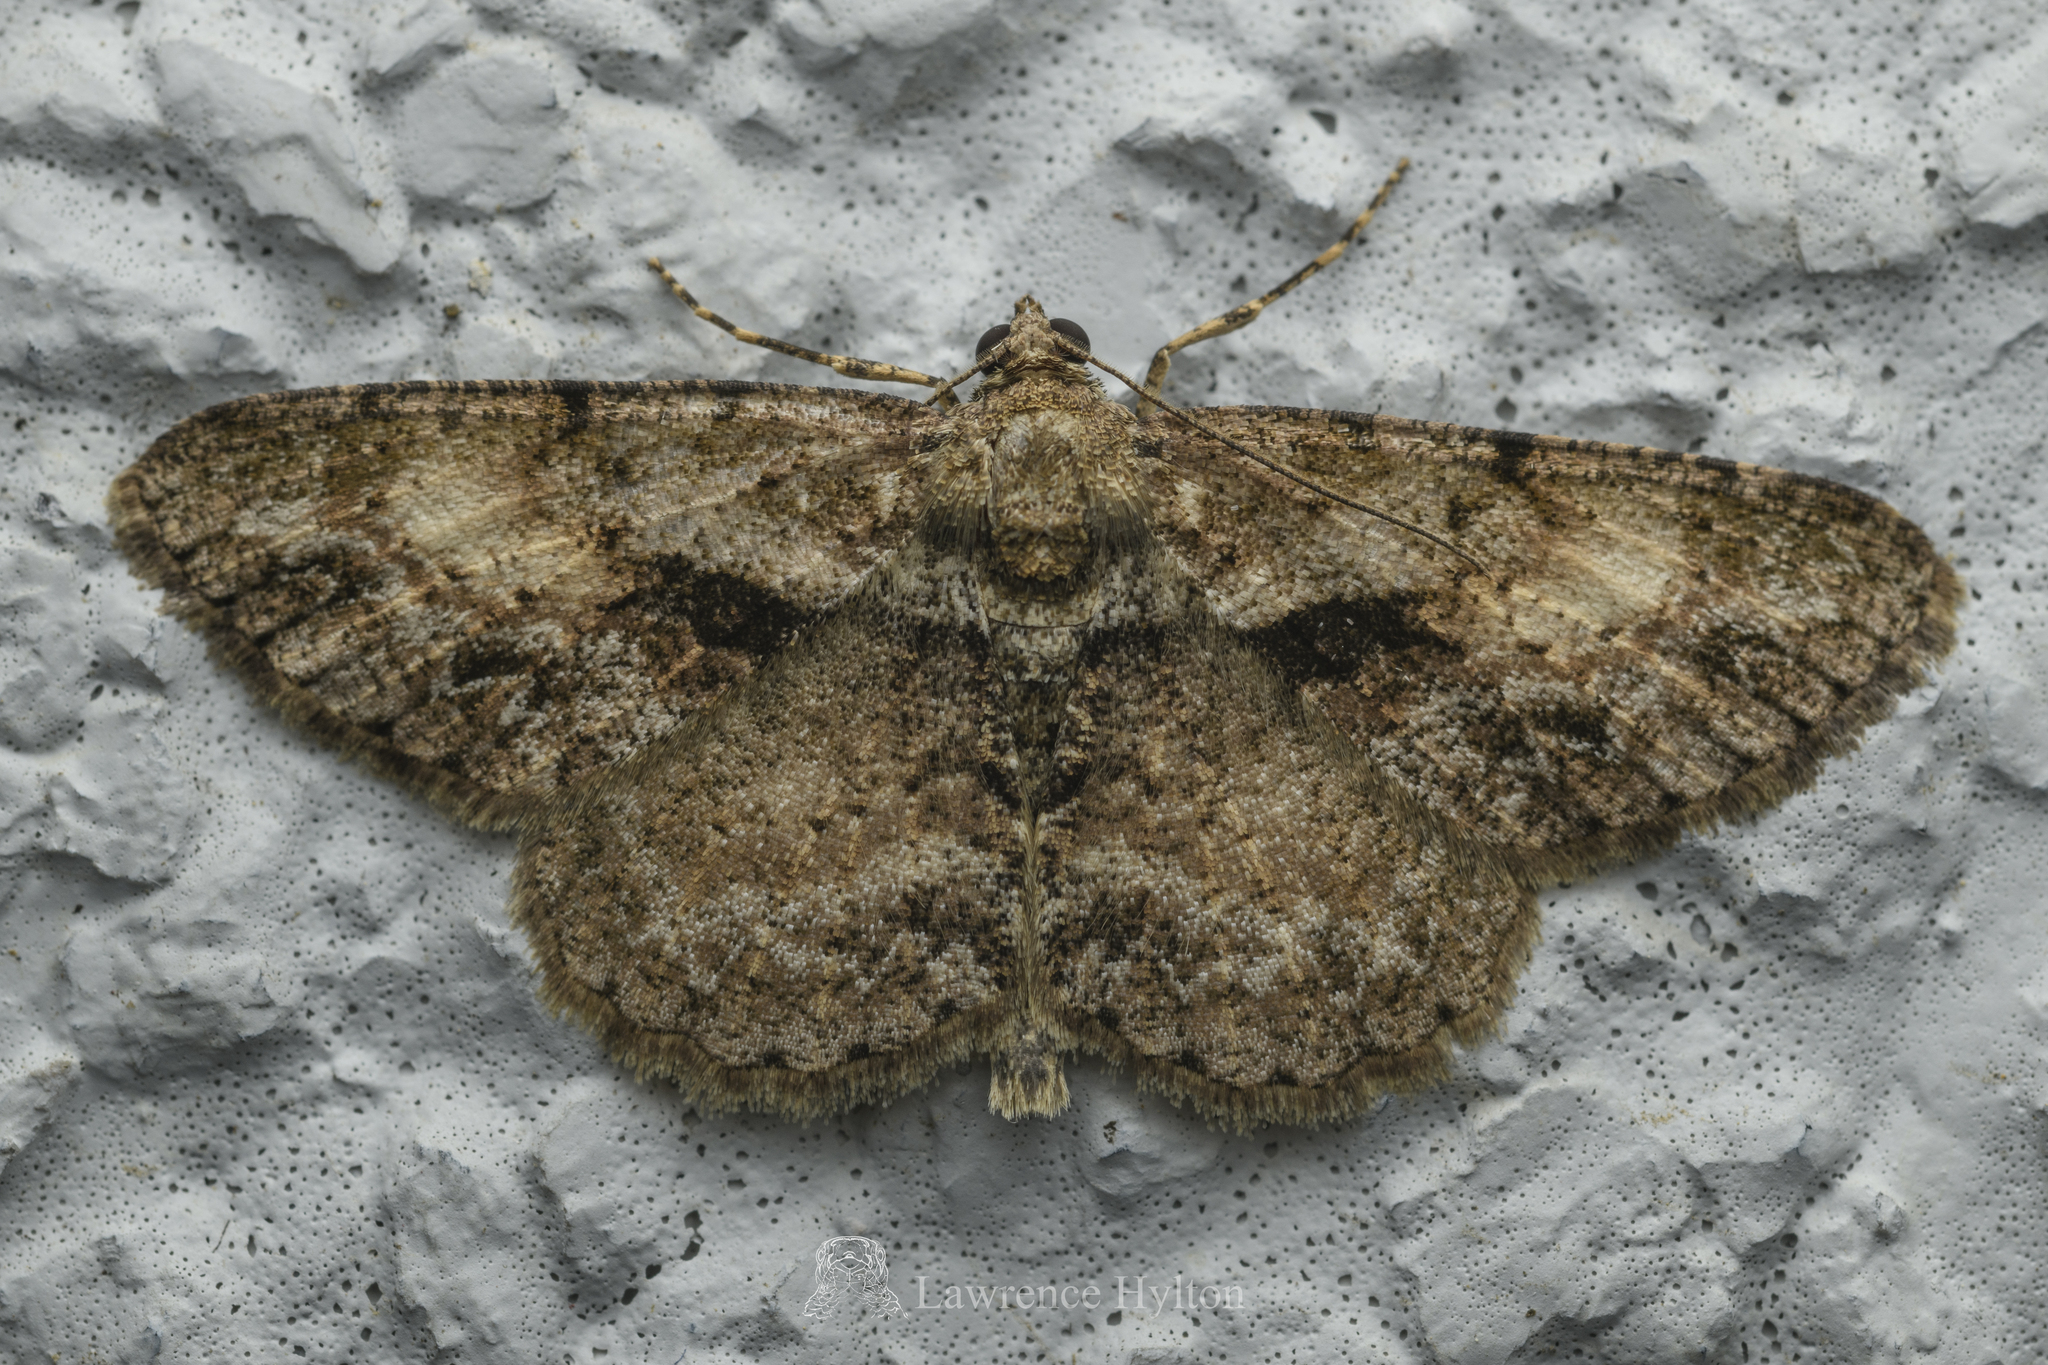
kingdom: Animalia
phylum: Arthropoda
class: Insecta
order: Lepidoptera
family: Geometridae
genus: Psilalcis
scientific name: Psilalcis galsworthyi
